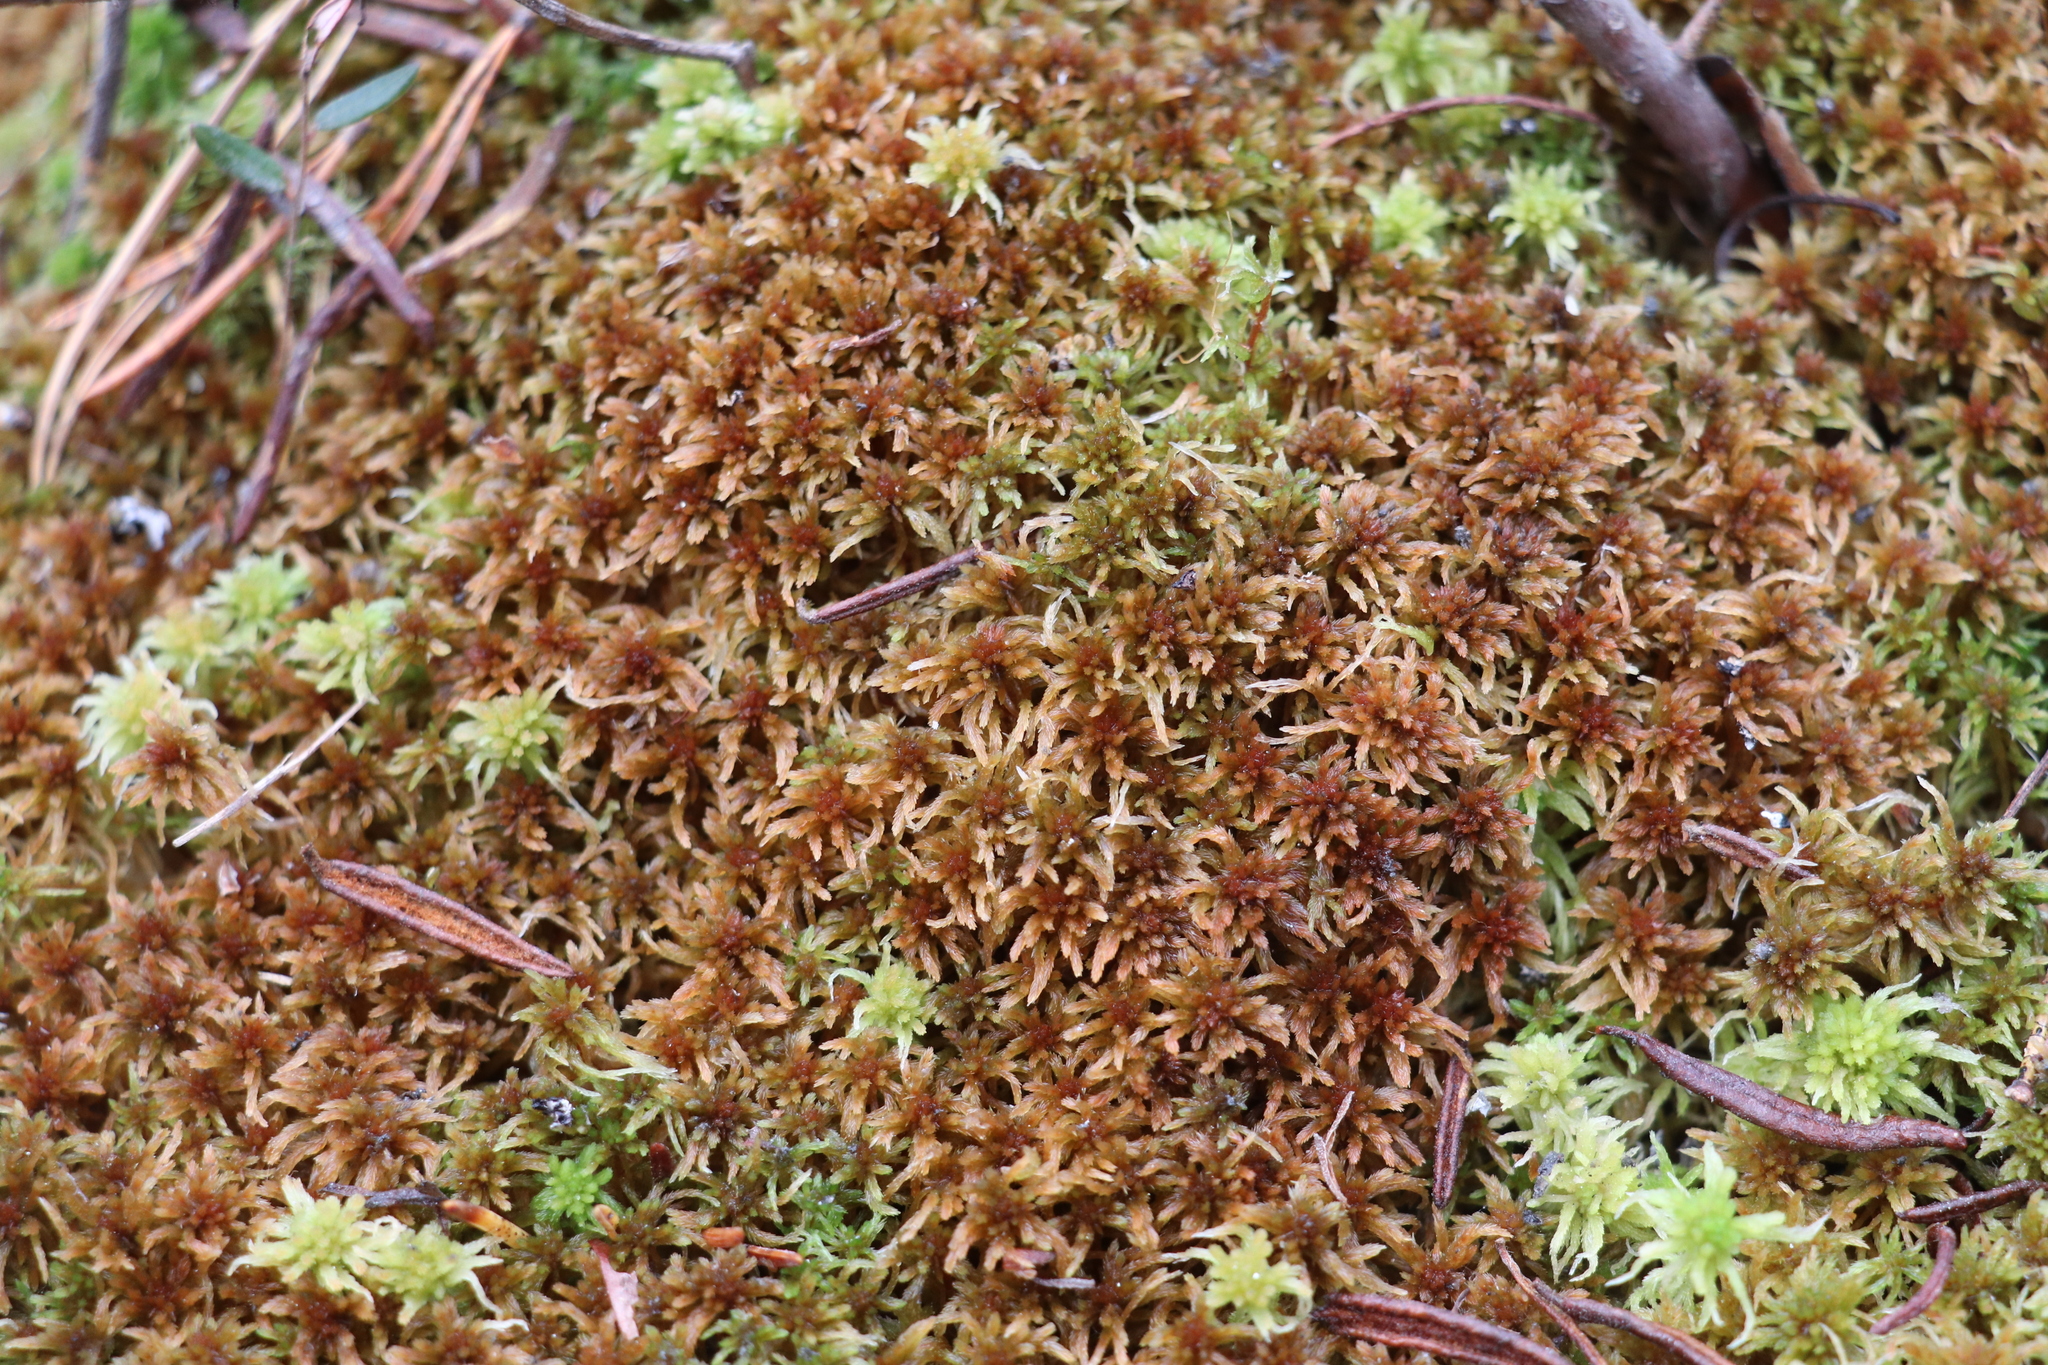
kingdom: Plantae
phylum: Bryophyta
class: Sphagnopsida
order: Sphagnales
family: Sphagnaceae
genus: Sphagnum
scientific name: Sphagnum fuscum
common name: Brown peat moss
